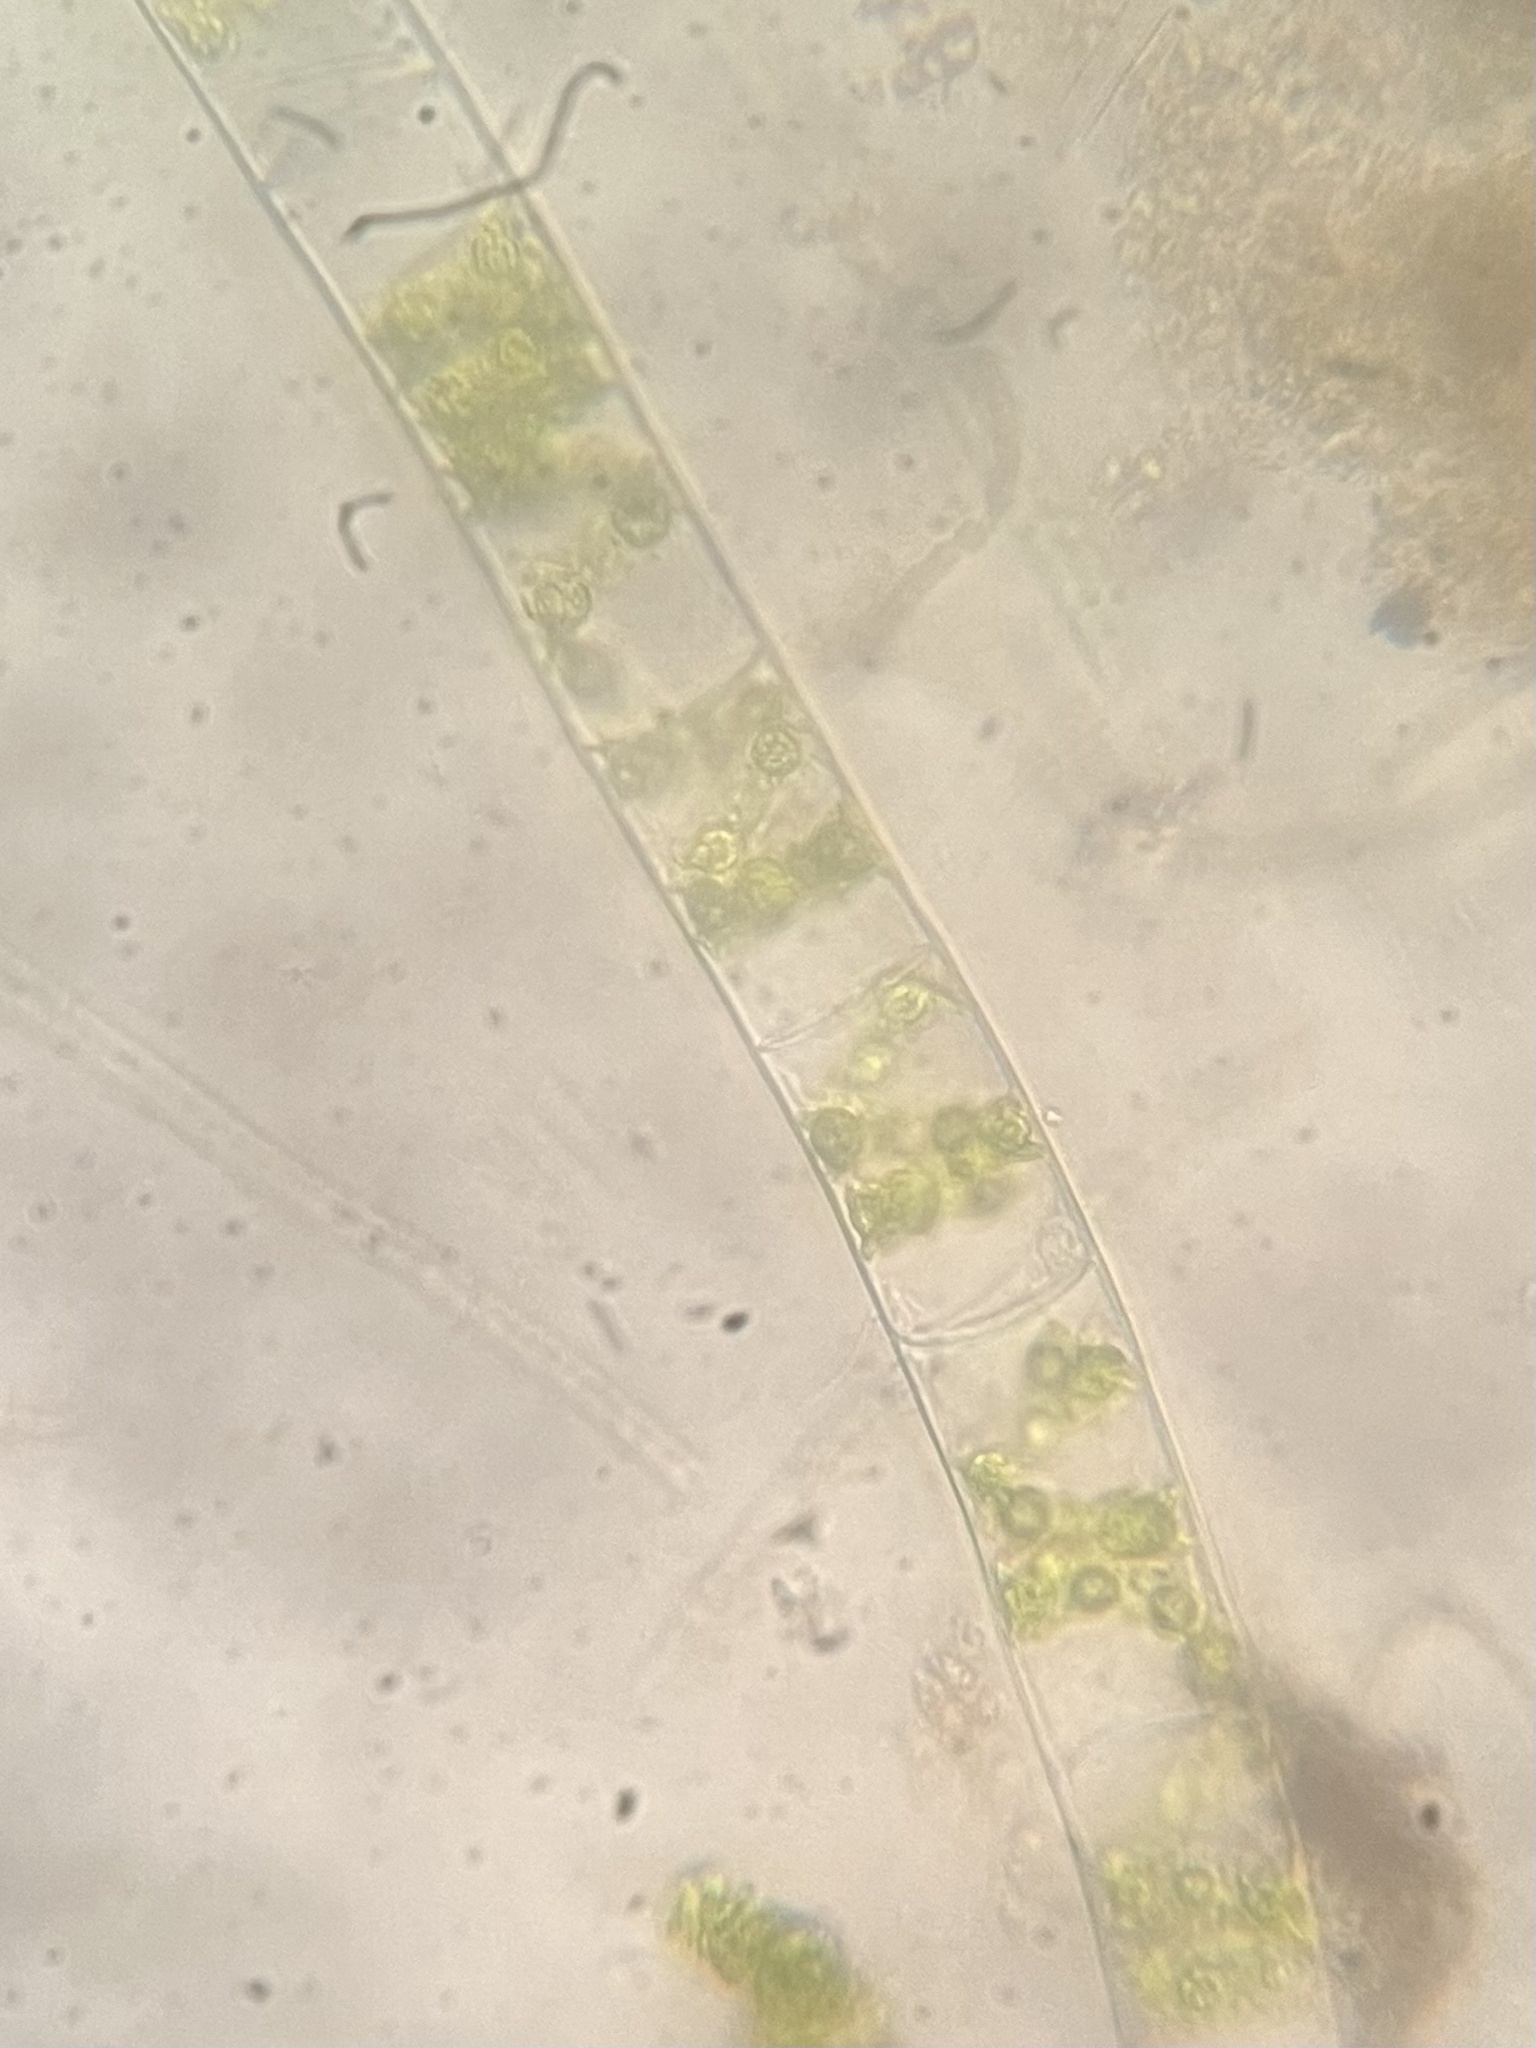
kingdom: Plantae
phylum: Charophyta
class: Zygnematophyceae
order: Zygnematales
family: Zygnemataceae
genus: Spirogyra
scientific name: Spirogyra
